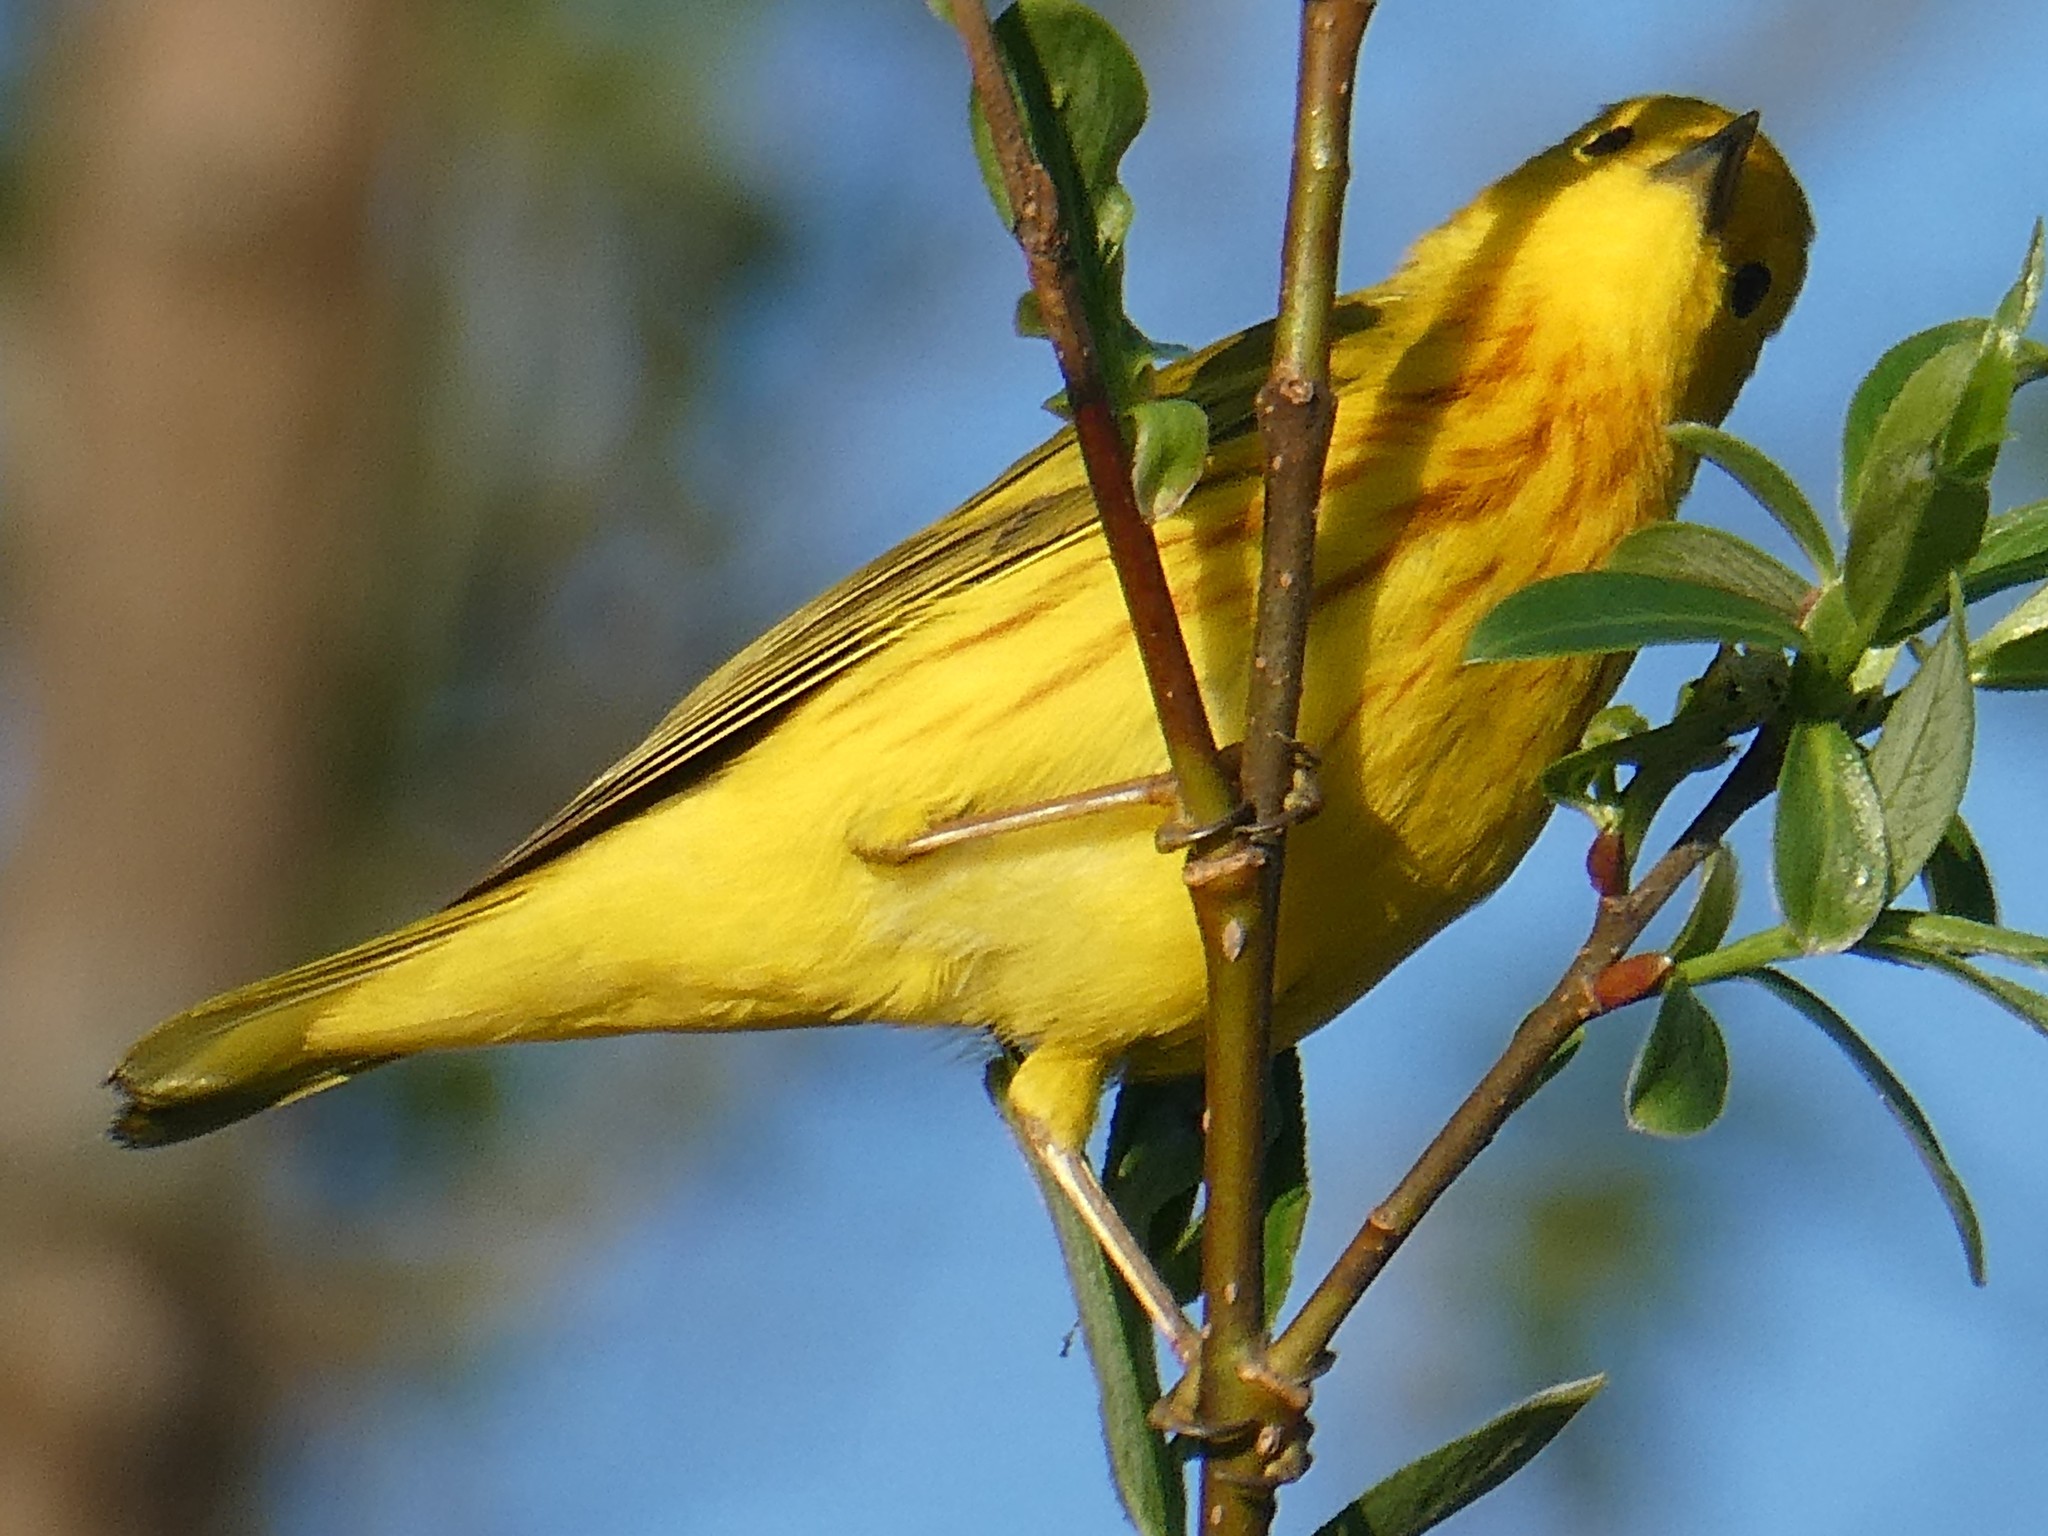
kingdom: Animalia
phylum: Chordata
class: Aves
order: Passeriformes
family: Parulidae
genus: Setophaga
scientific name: Setophaga petechia
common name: Yellow warbler
